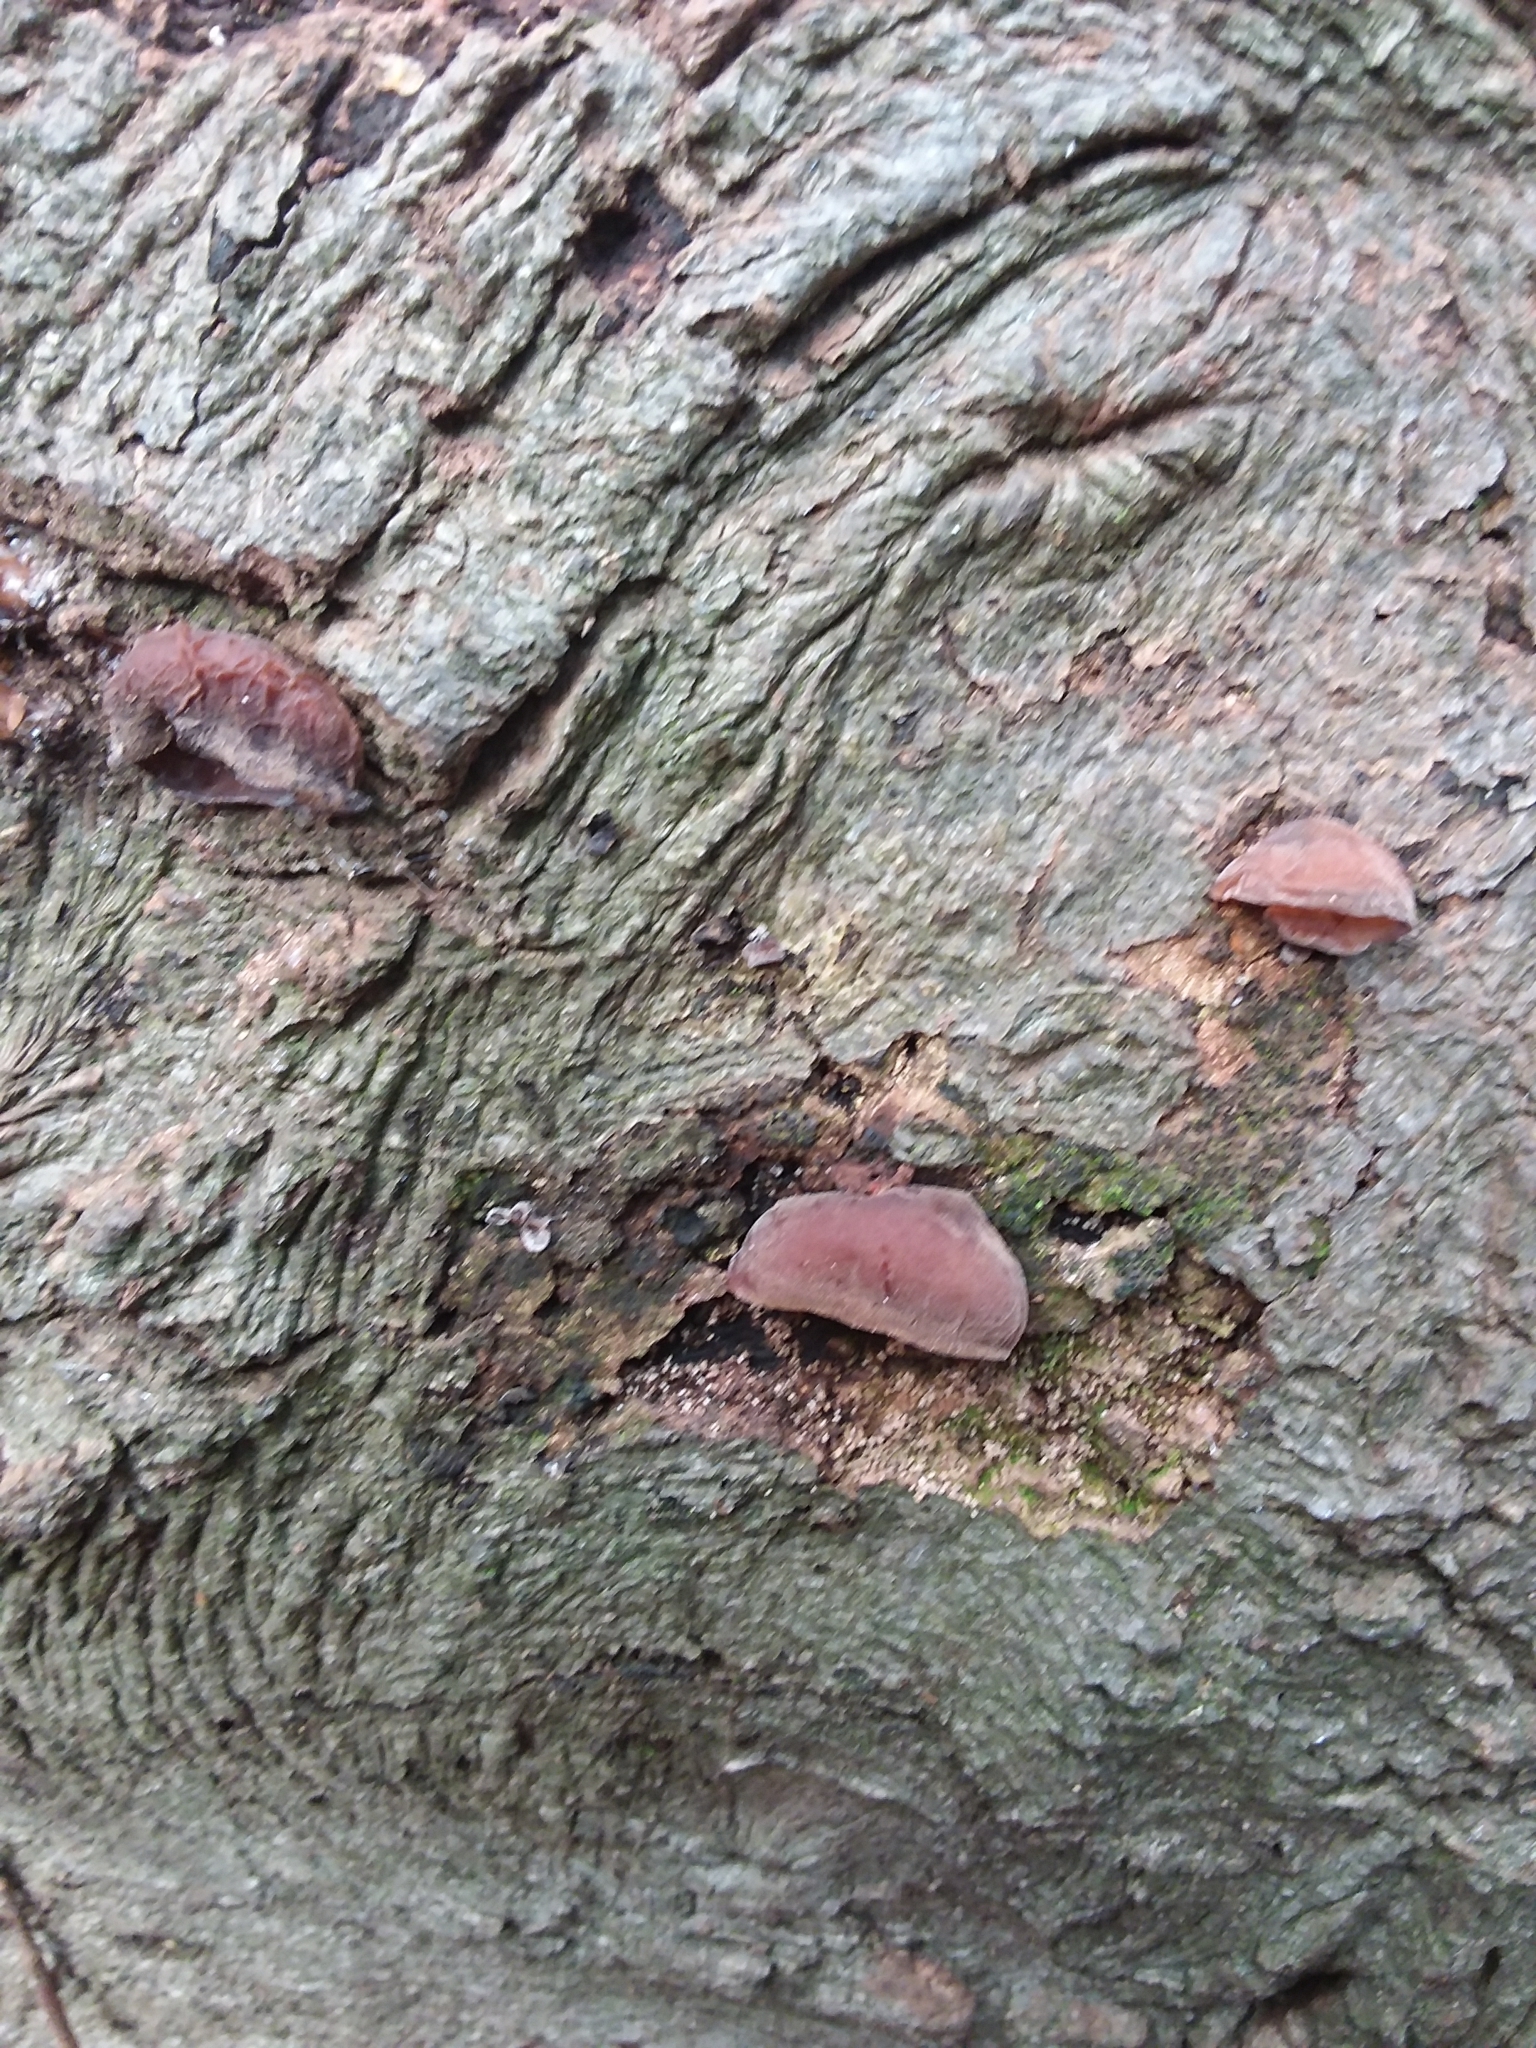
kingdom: Fungi
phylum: Basidiomycota
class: Agaricomycetes
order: Auriculariales
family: Auriculariaceae
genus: Auricularia
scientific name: Auricularia auricula-judae
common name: Jelly ear
